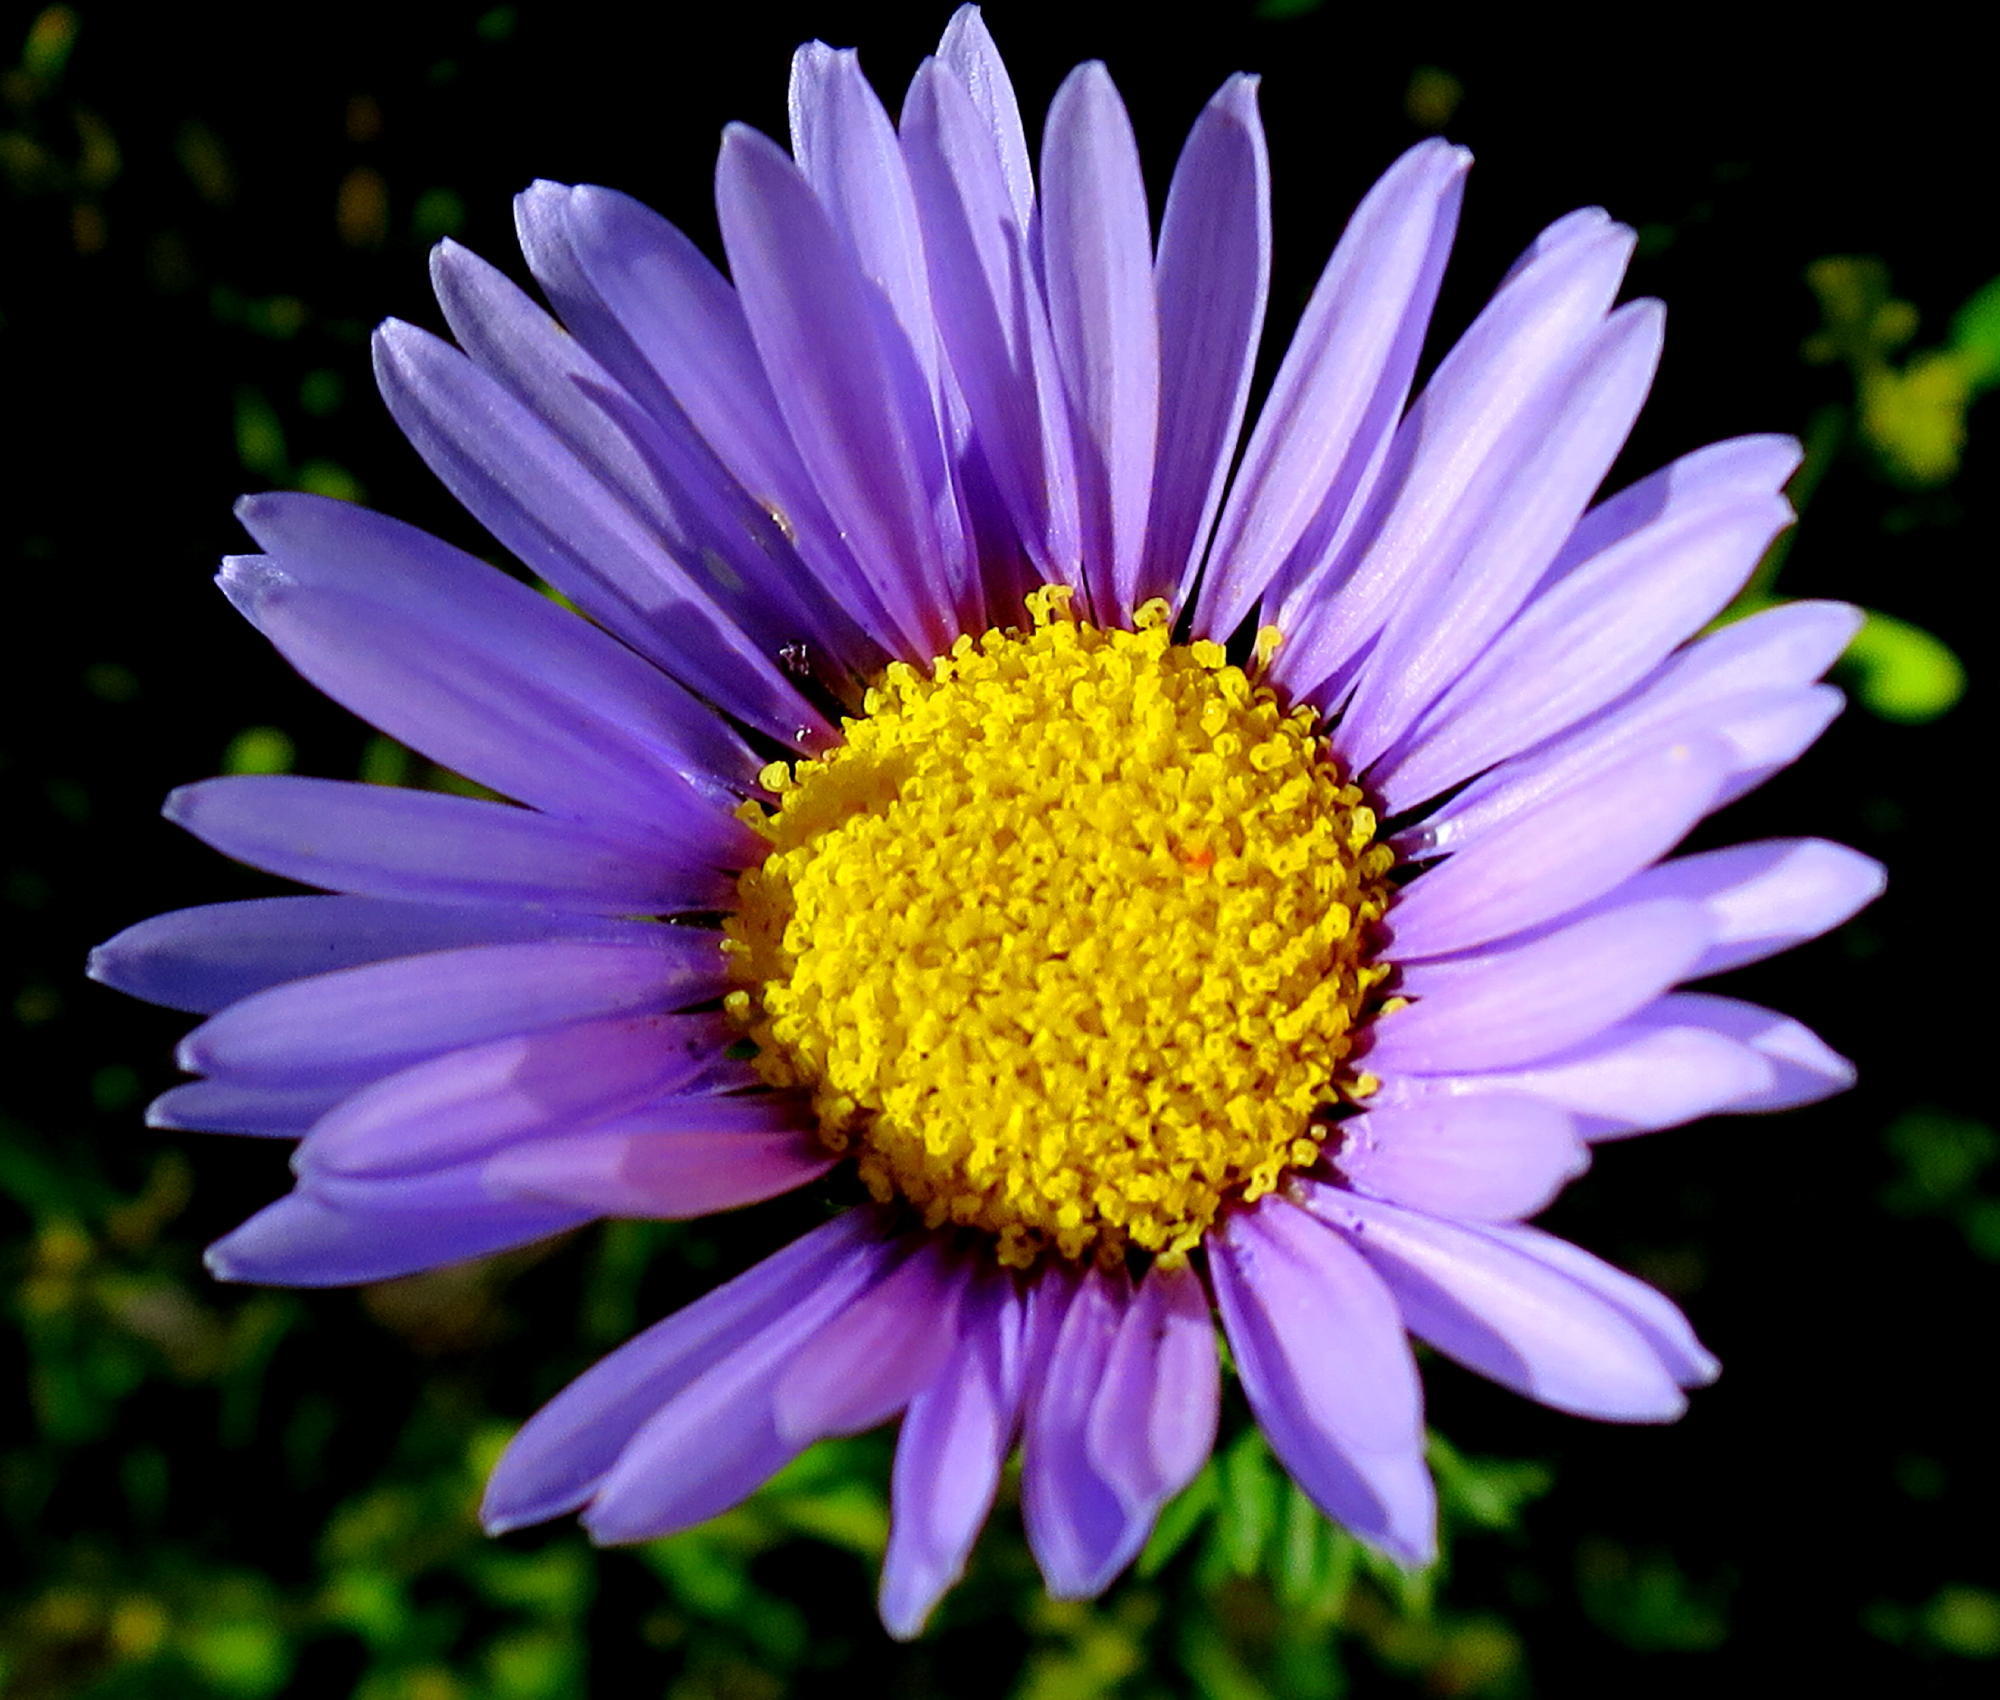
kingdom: Plantae
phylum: Tracheophyta
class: Magnoliopsida
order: Asterales
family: Asteraceae
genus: Felicia
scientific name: Felicia echinata
